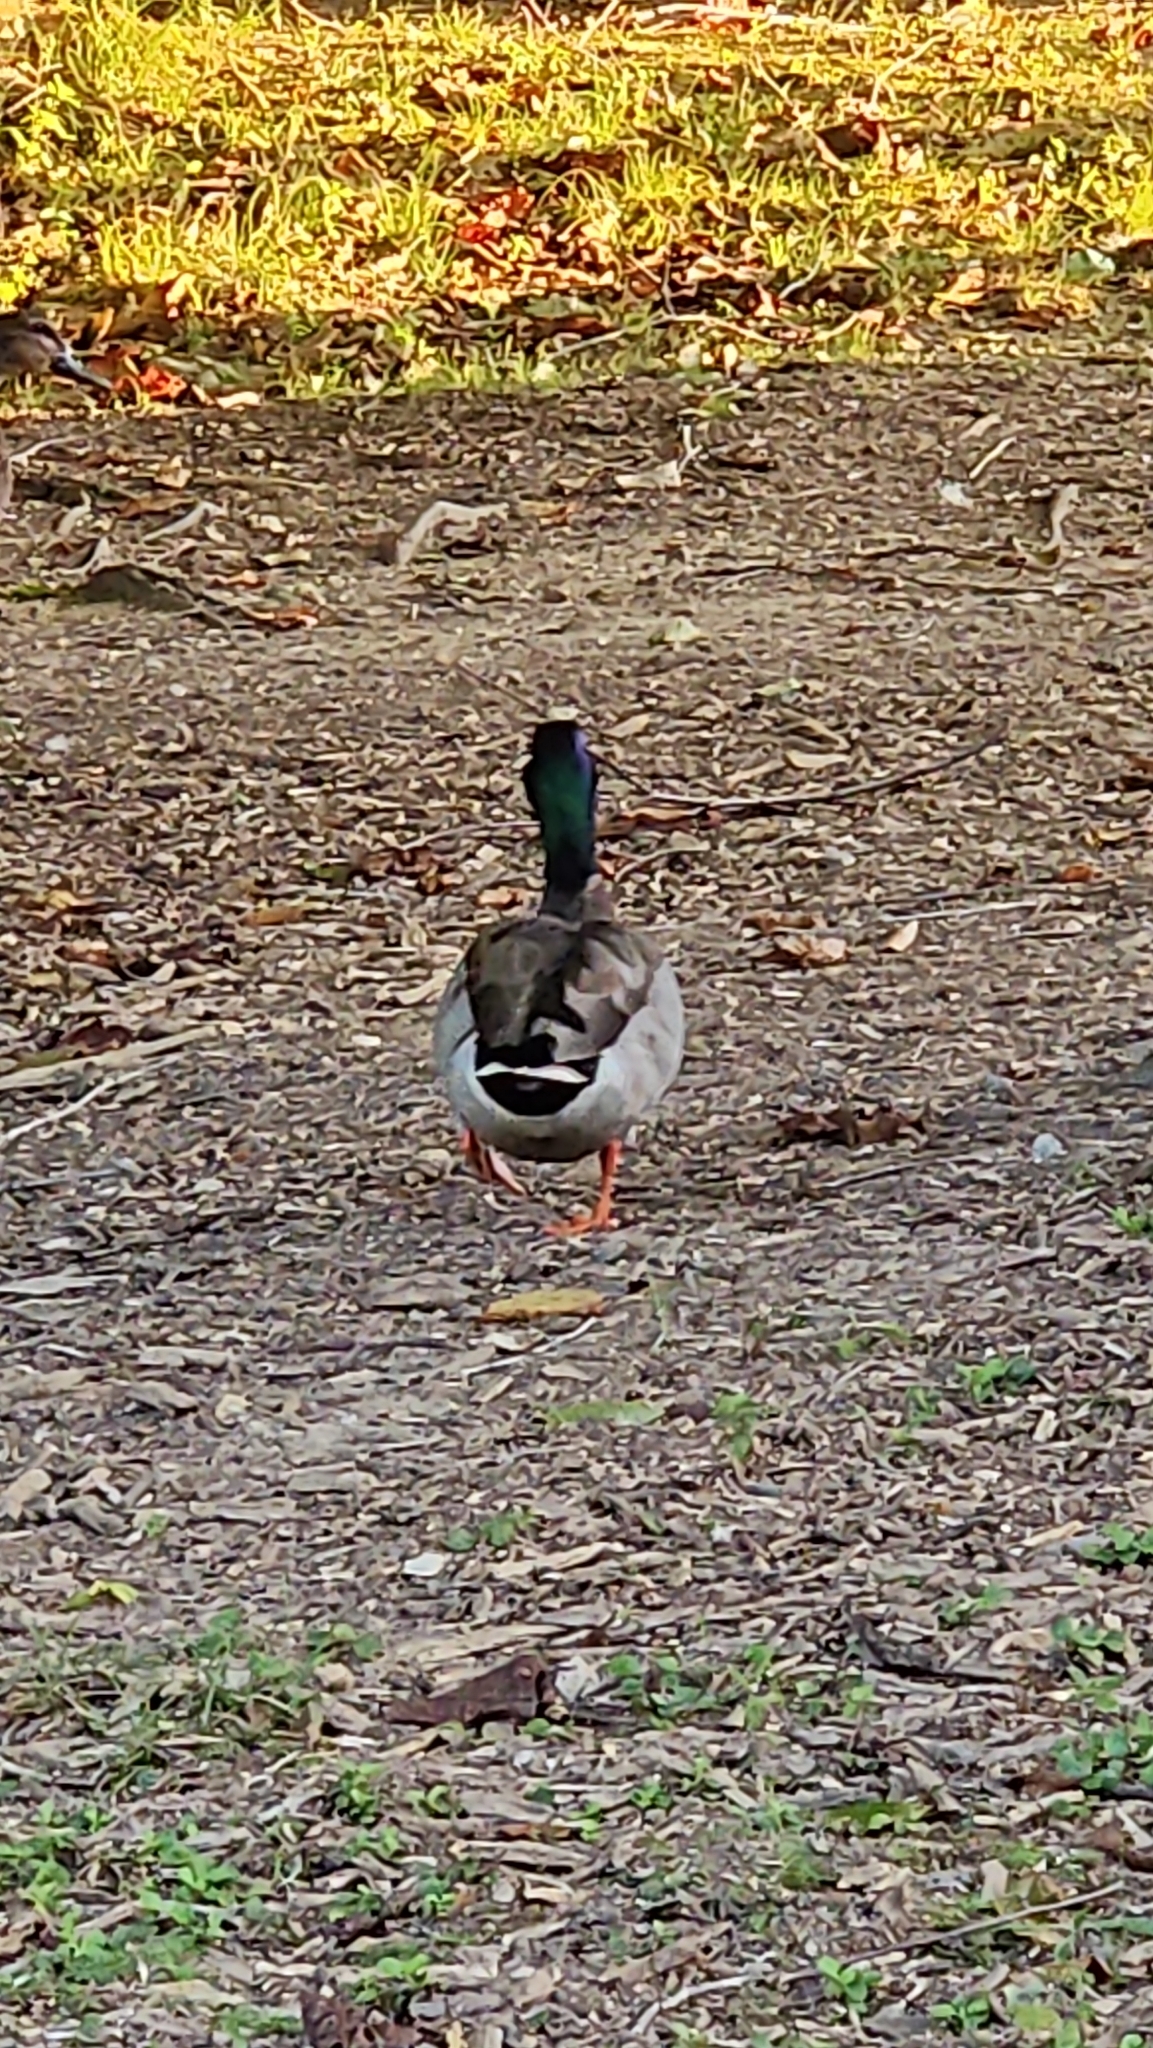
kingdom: Animalia
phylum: Chordata
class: Aves
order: Anseriformes
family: Anatidae
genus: Anas
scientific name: Anas platyrhynchos
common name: Mallard
